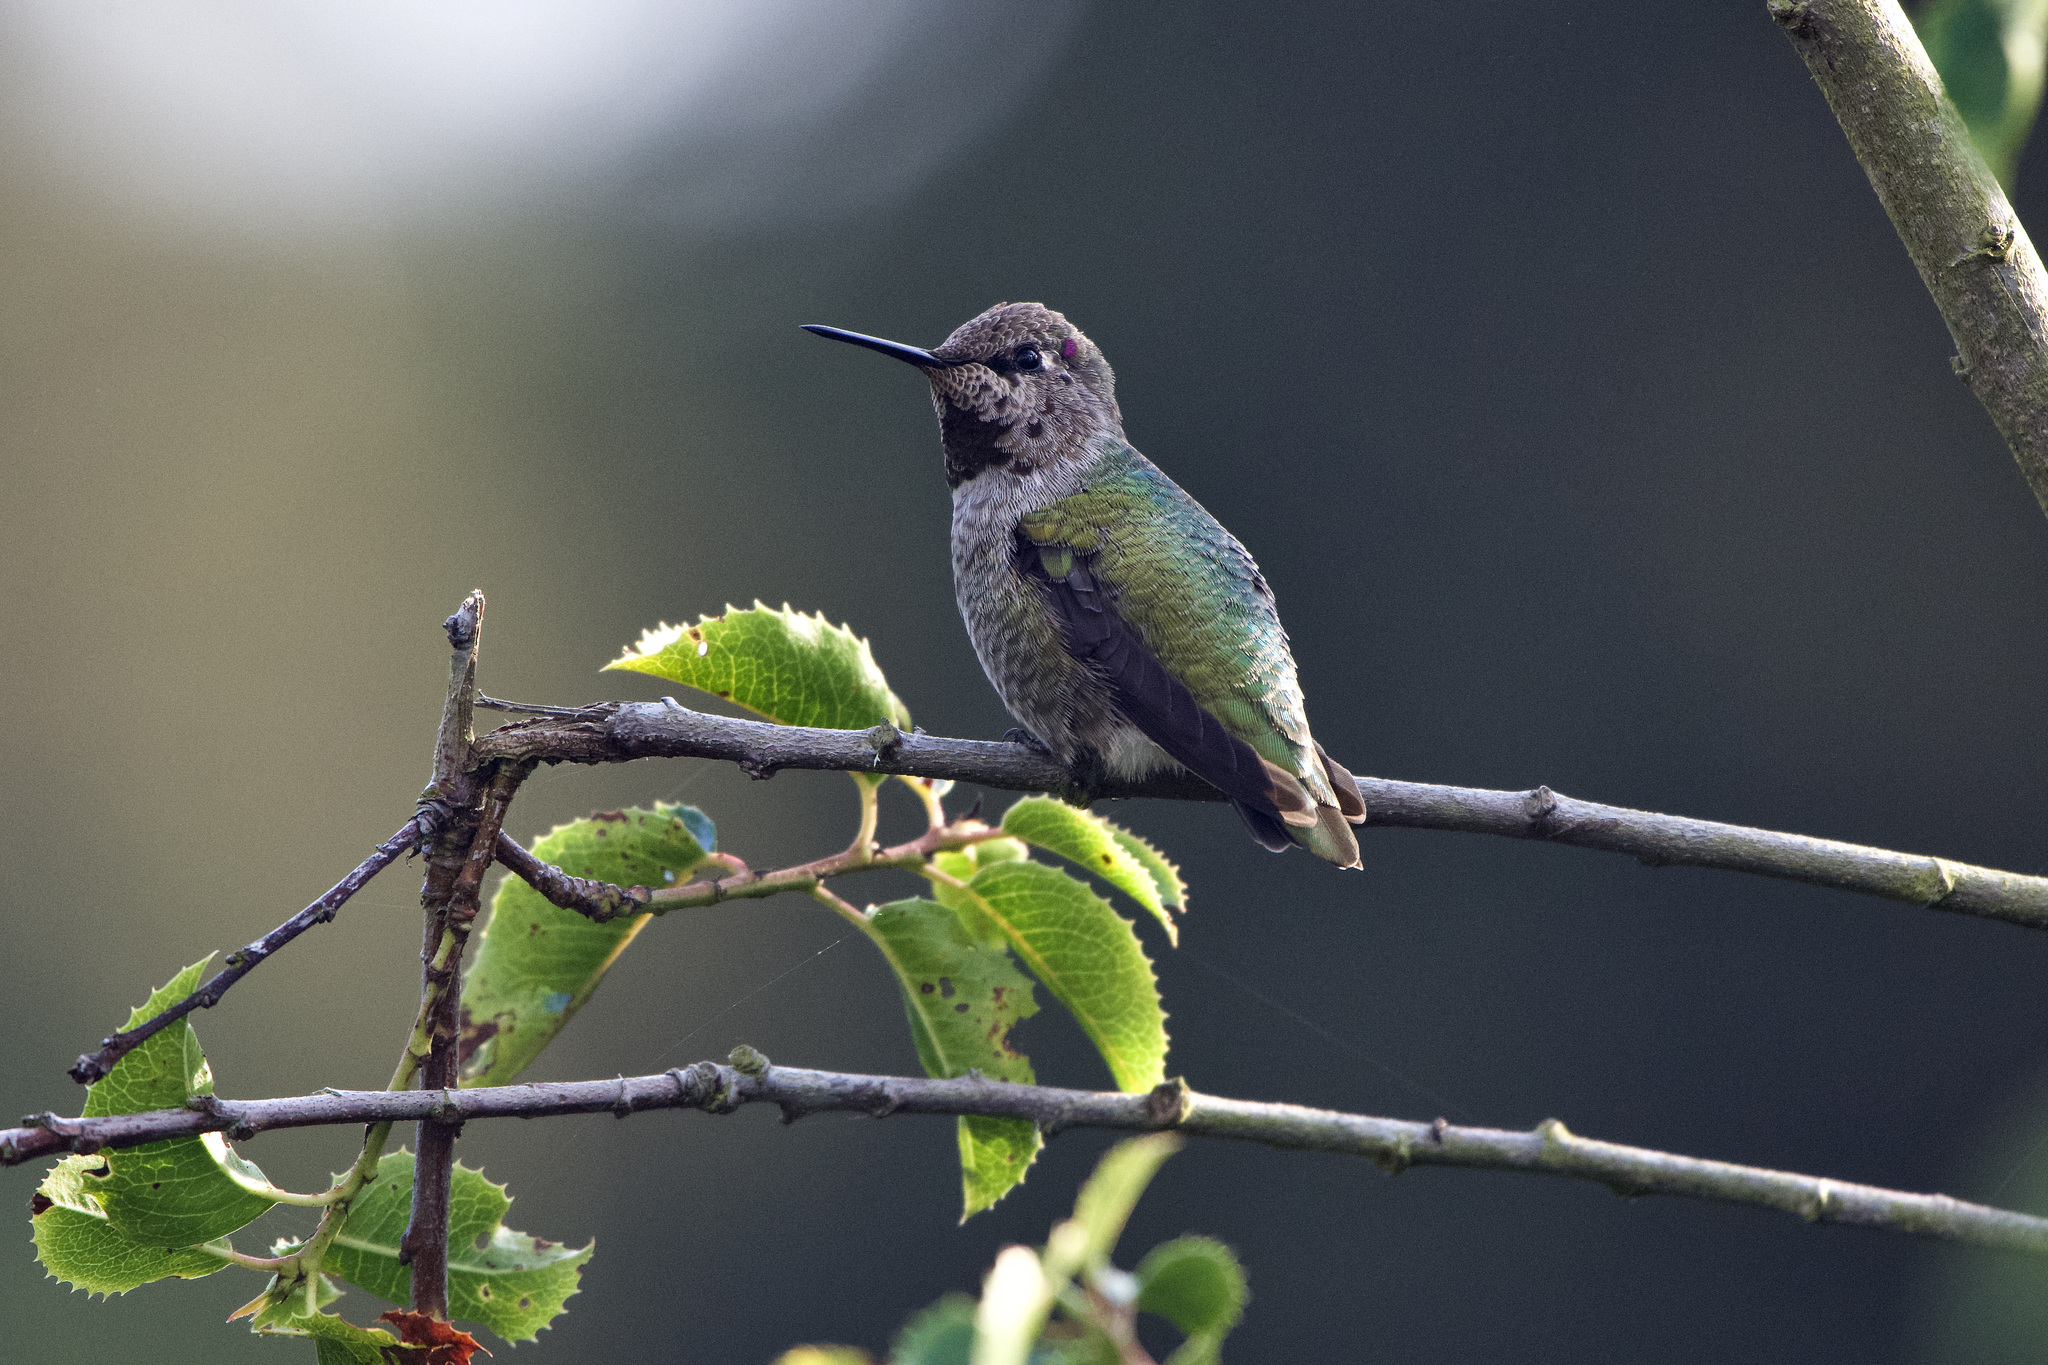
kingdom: Animalia
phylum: Chordata
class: Aves
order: Apodiformes
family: Trochilidae
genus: Calypte
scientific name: Calypte anna
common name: Anna's hummingbird
